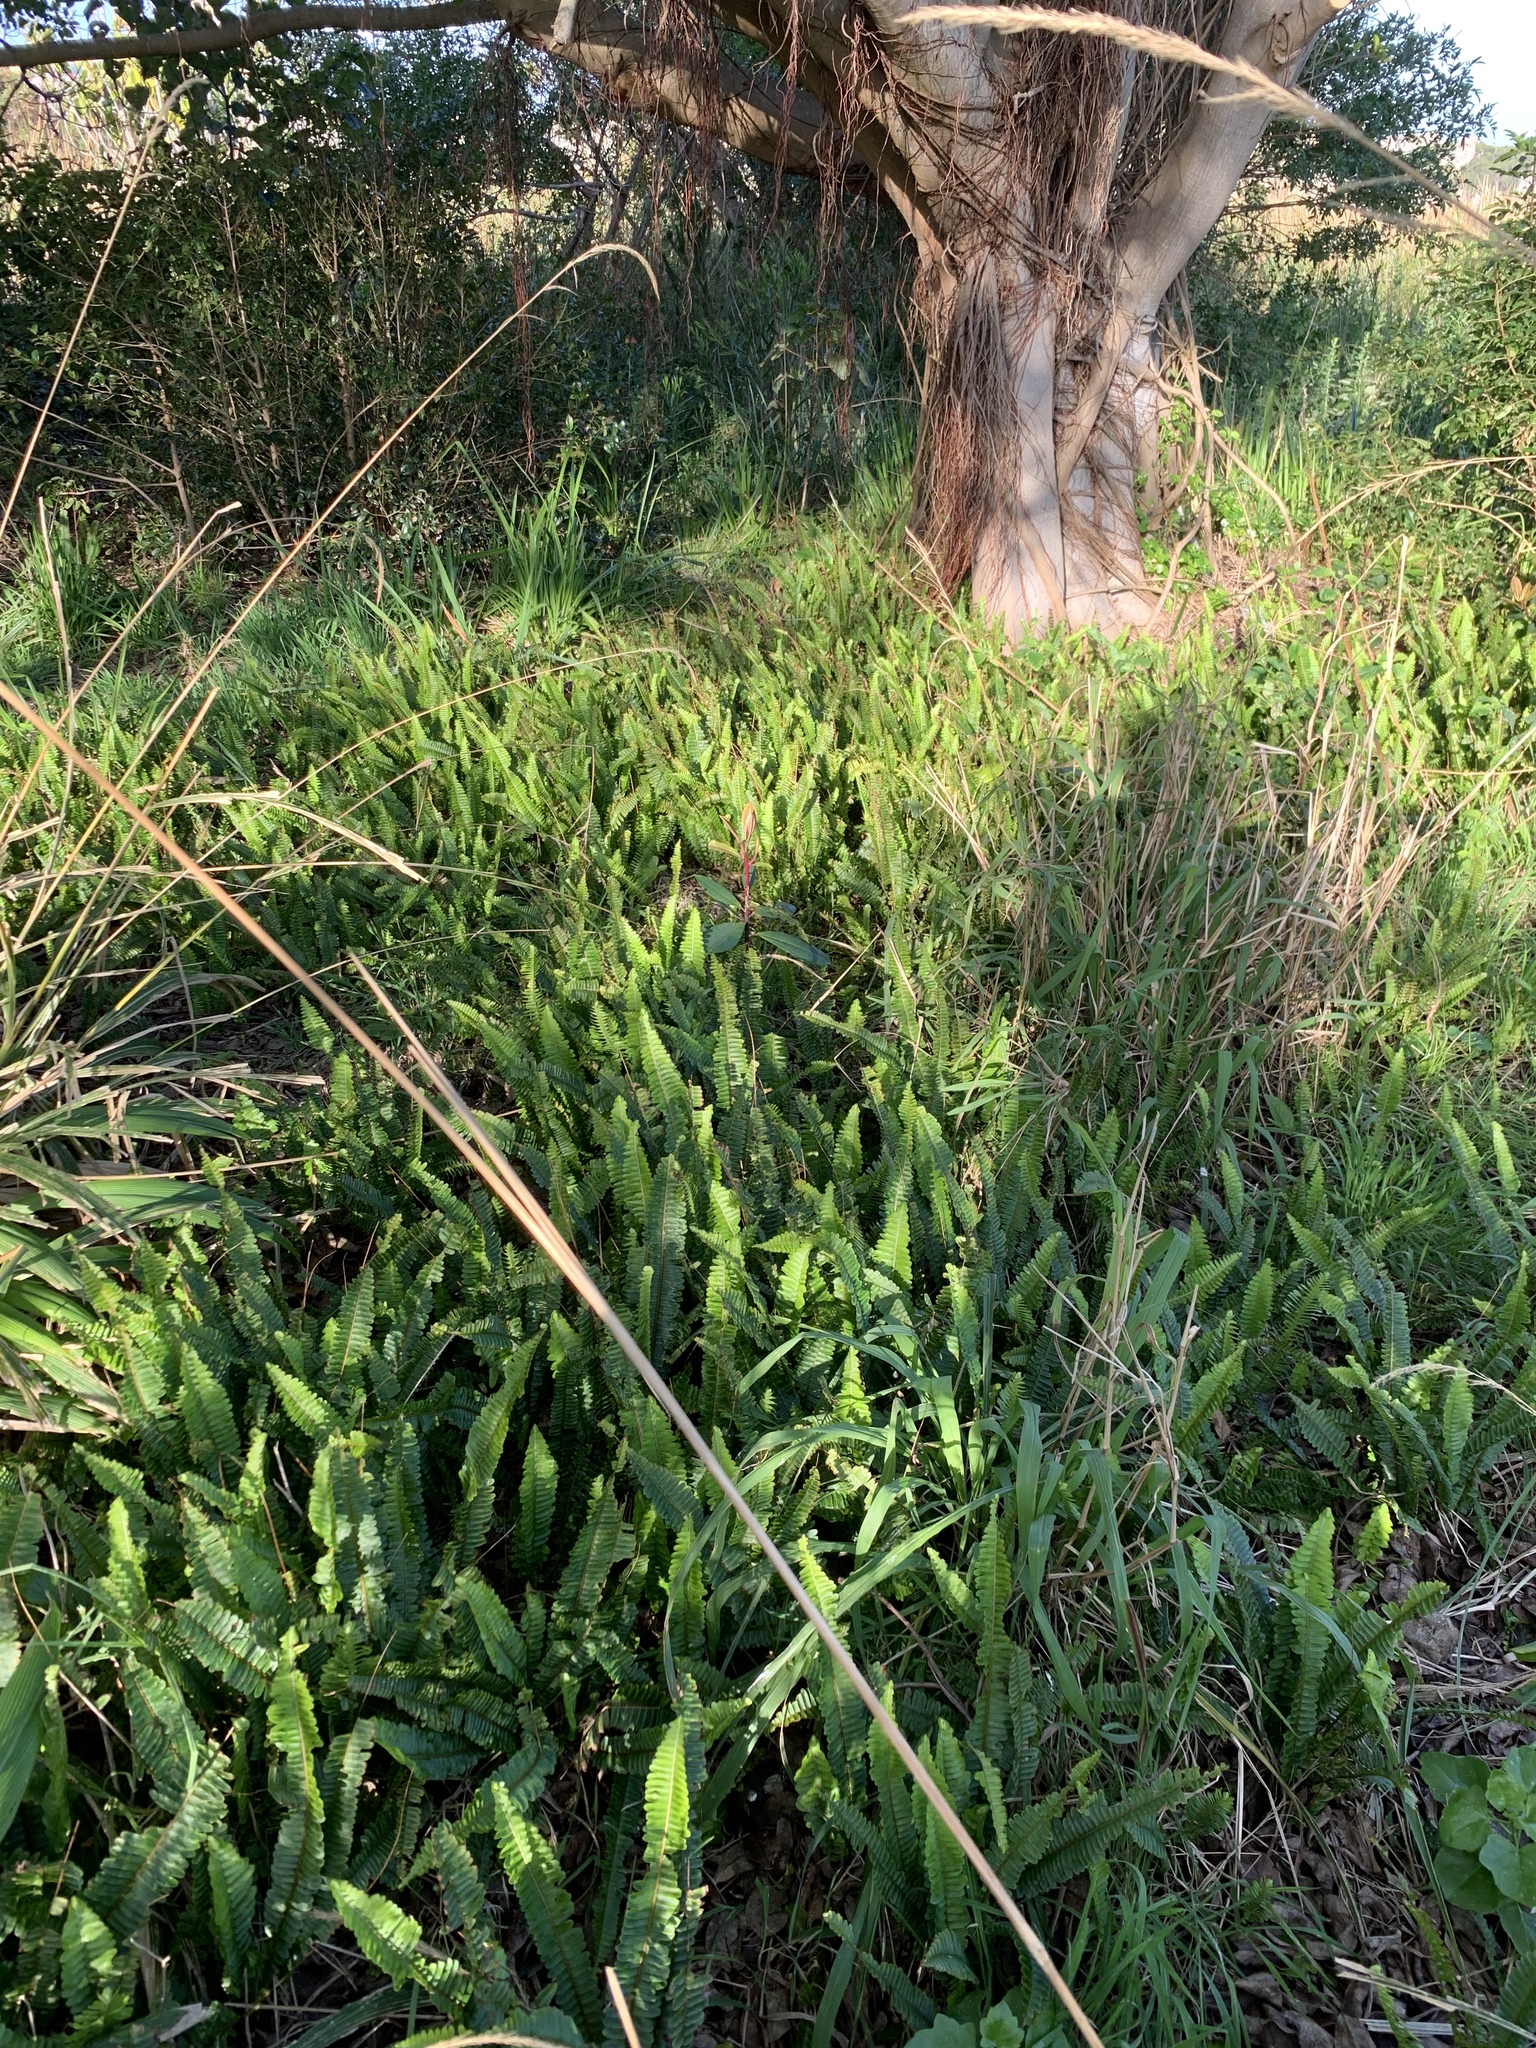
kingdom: Plantae
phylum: Tracheophyta
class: Polypodiopsida
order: Polypodiales
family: Nephrolepidaceae
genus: Nephrolepis
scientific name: Nephrolepis cordifolia
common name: Narrow swordfern
